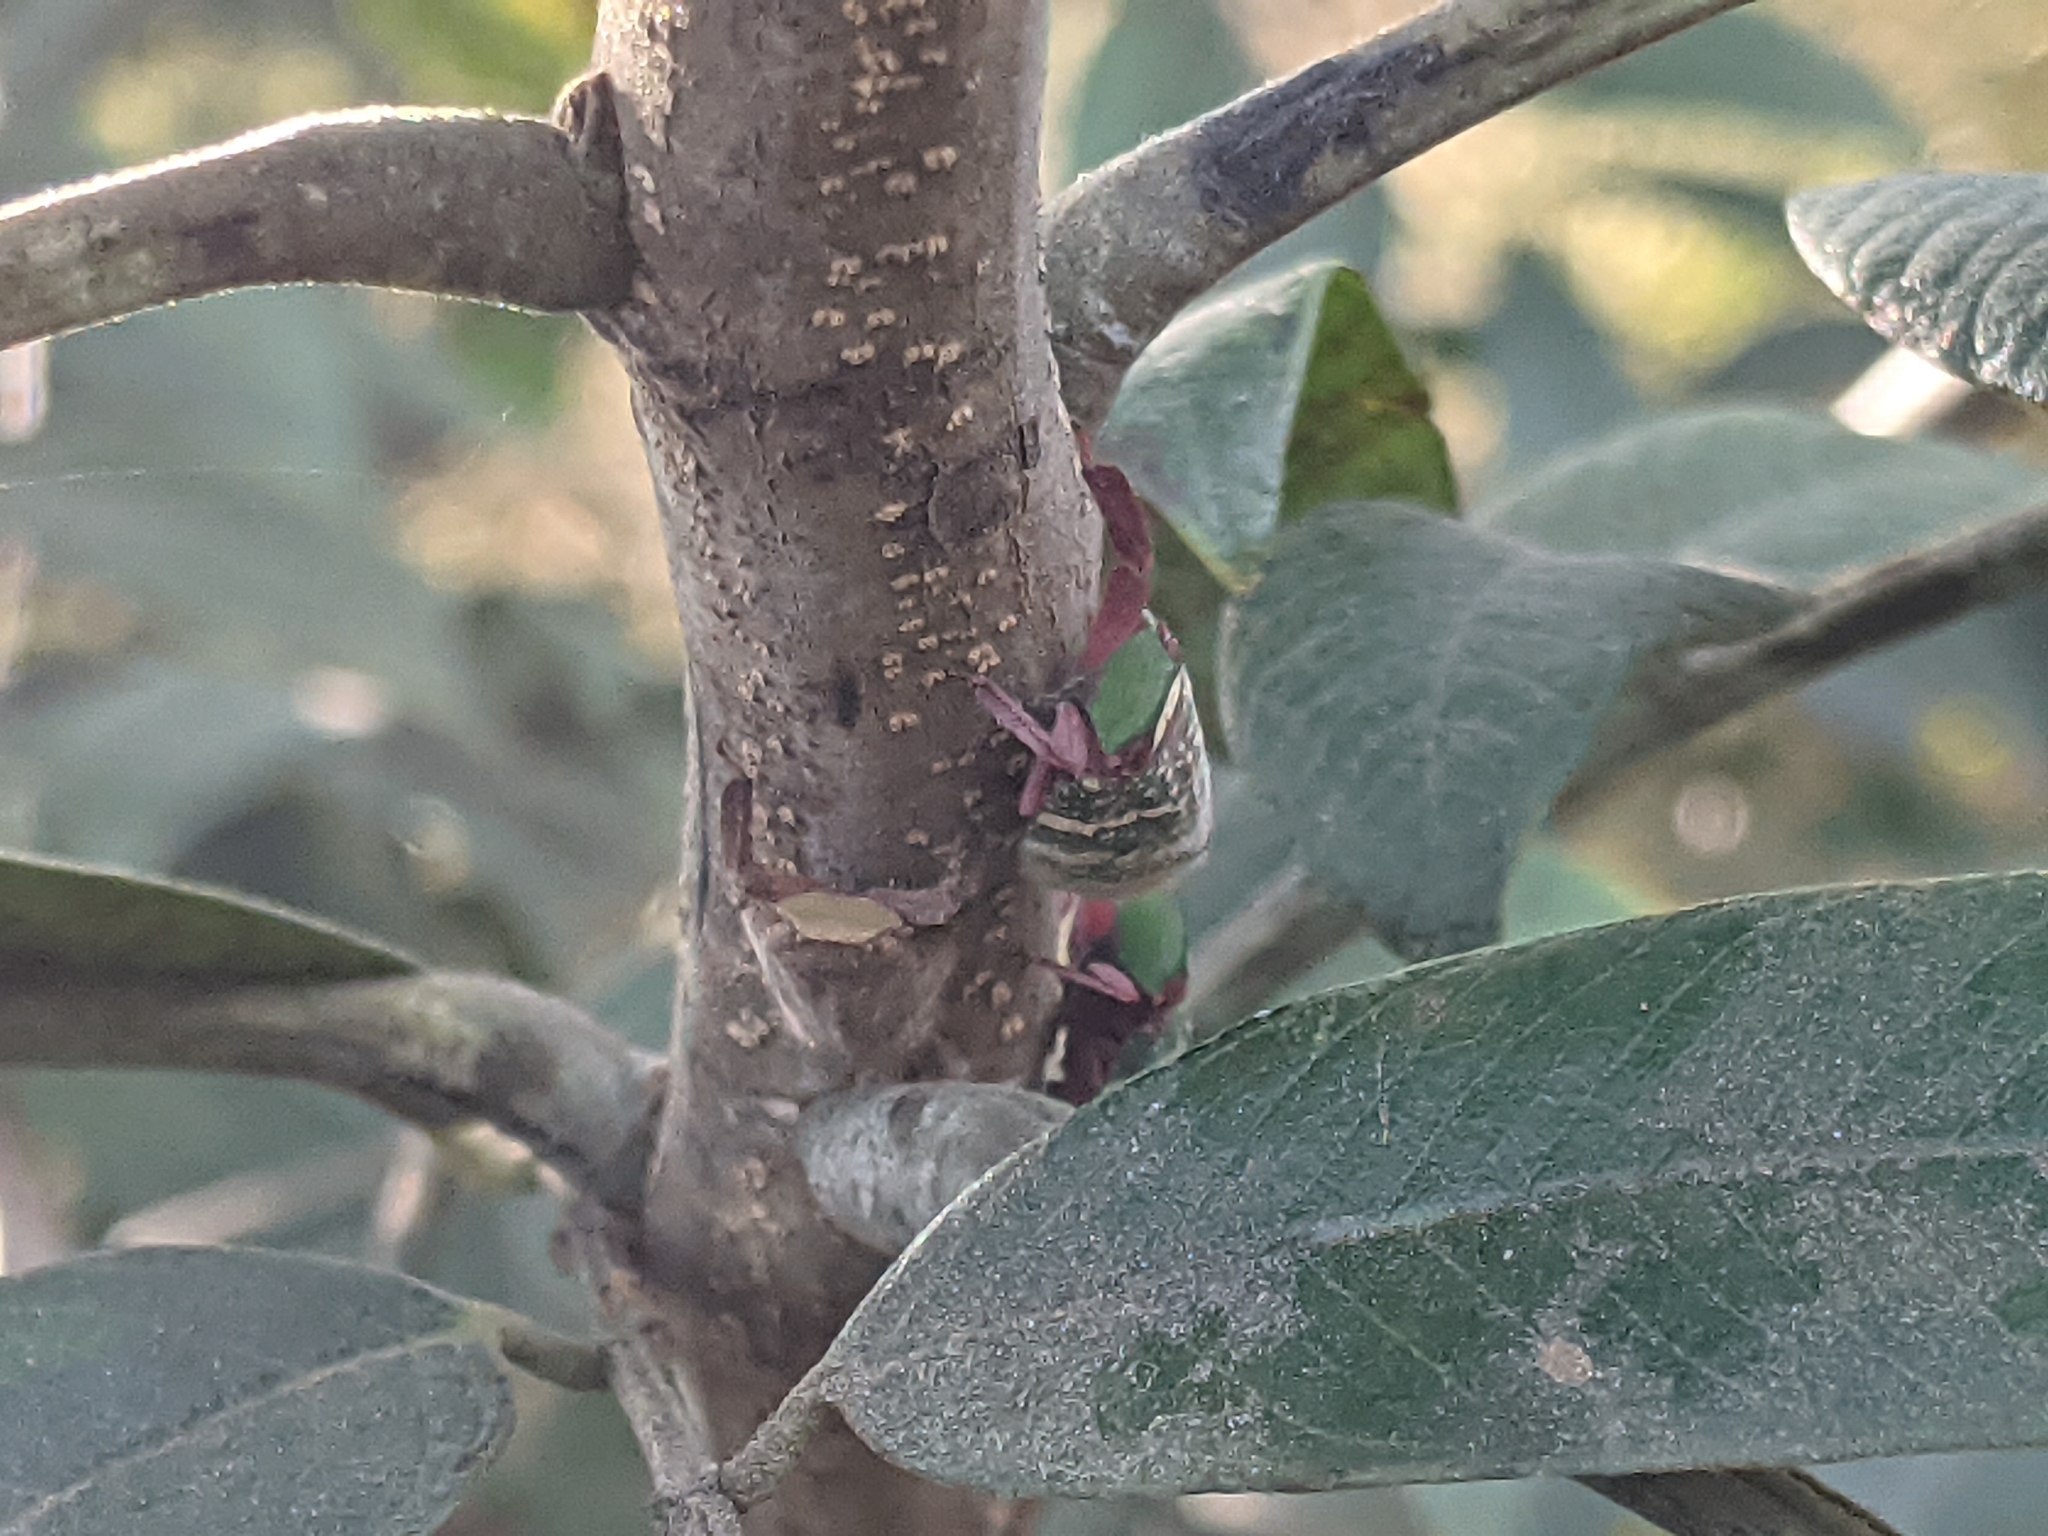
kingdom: Animalia
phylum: Arthropoda
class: Insecta
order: Hemiptera
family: Eurybrachidae
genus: Eurybrachys
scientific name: Eurybrachys tomentosa
